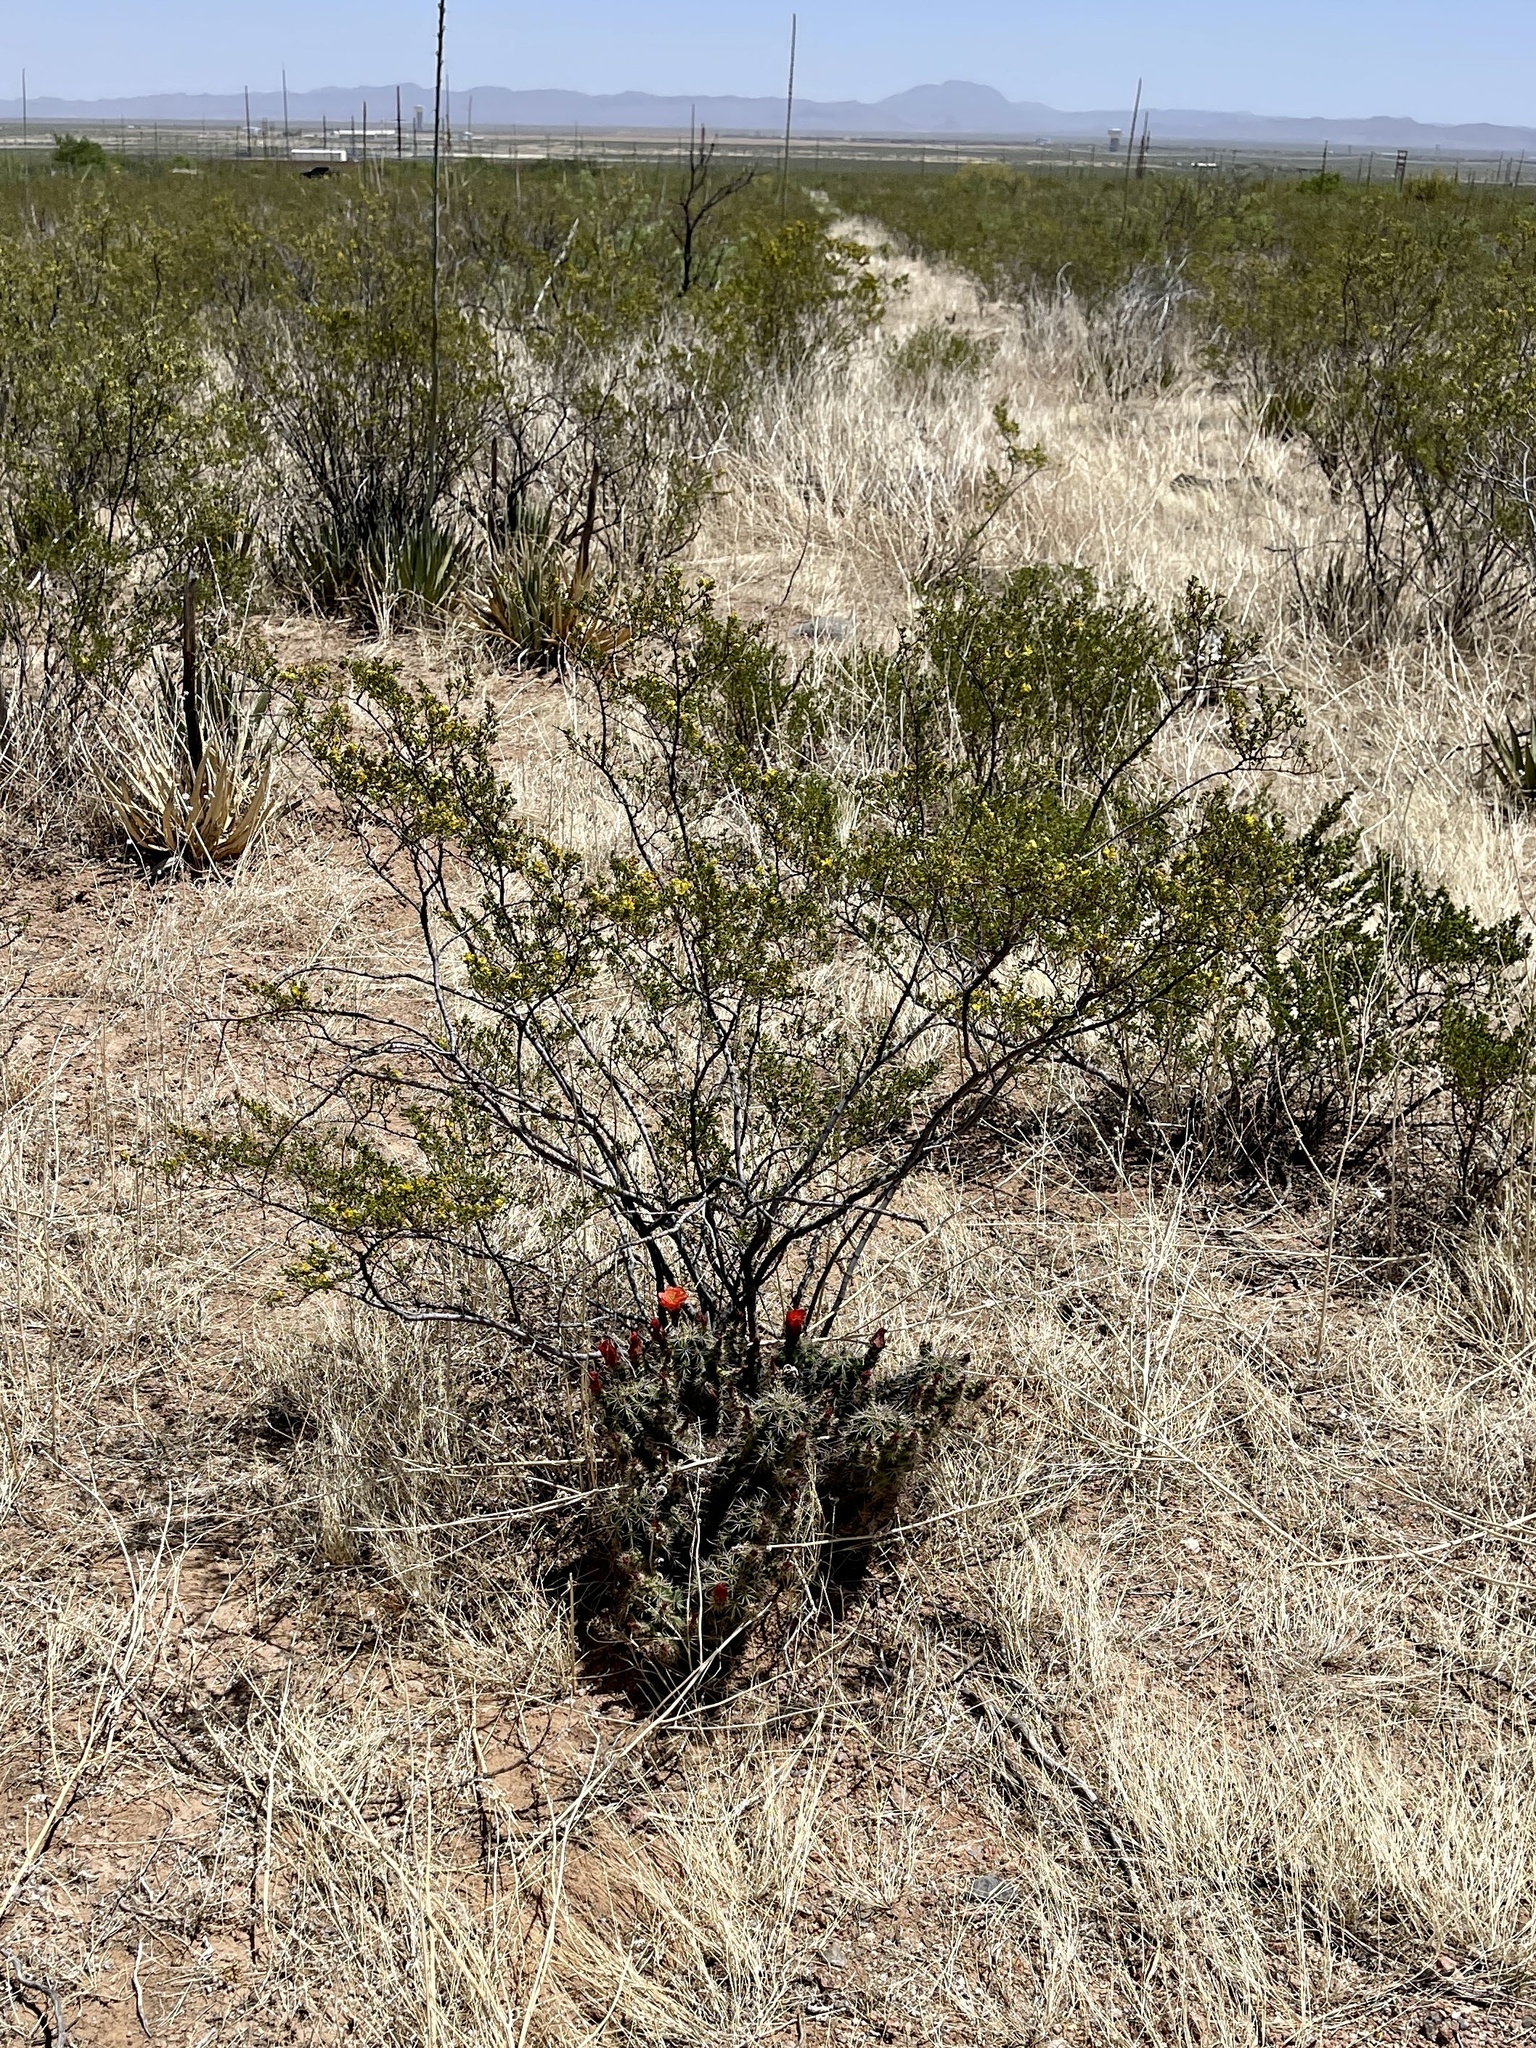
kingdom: Plantae
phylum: Tracheophyta
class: Magnoliopsida
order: Zygophyllales
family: Zygophyllaceae
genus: Larrea
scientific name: Larrea tridentata
